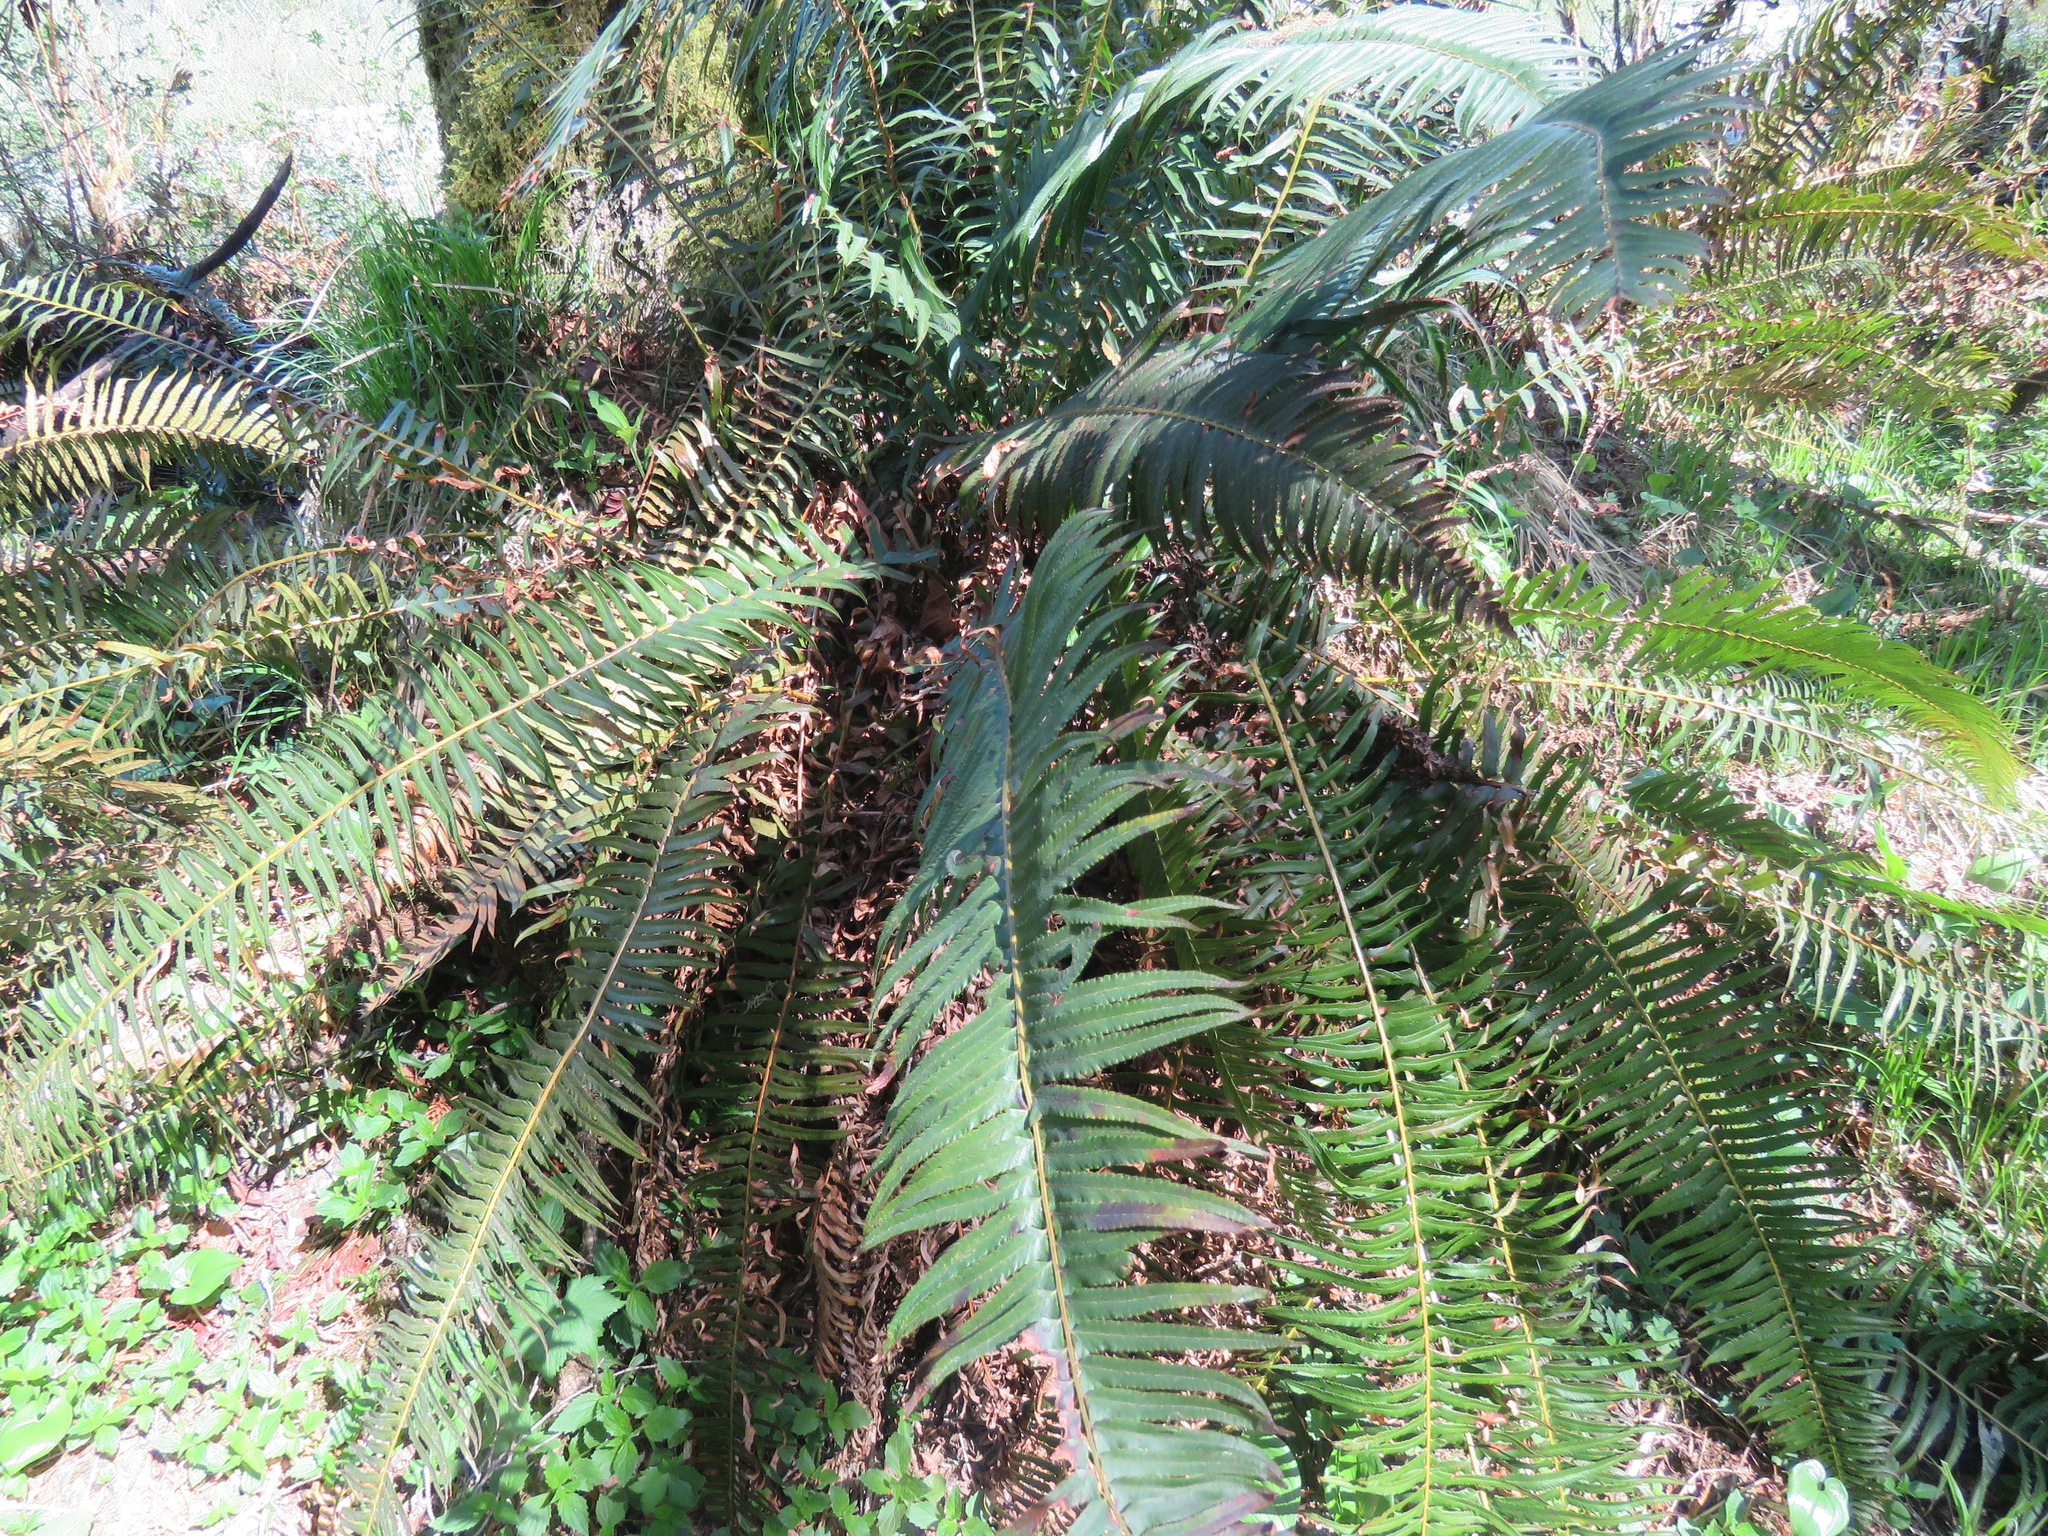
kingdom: Plantae
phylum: Tracheophyta
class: Polypodiopsida
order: Polypodiales
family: Dryopteridaceae
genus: Polystichum
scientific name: Polystichum munitum
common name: Western sword-fern
